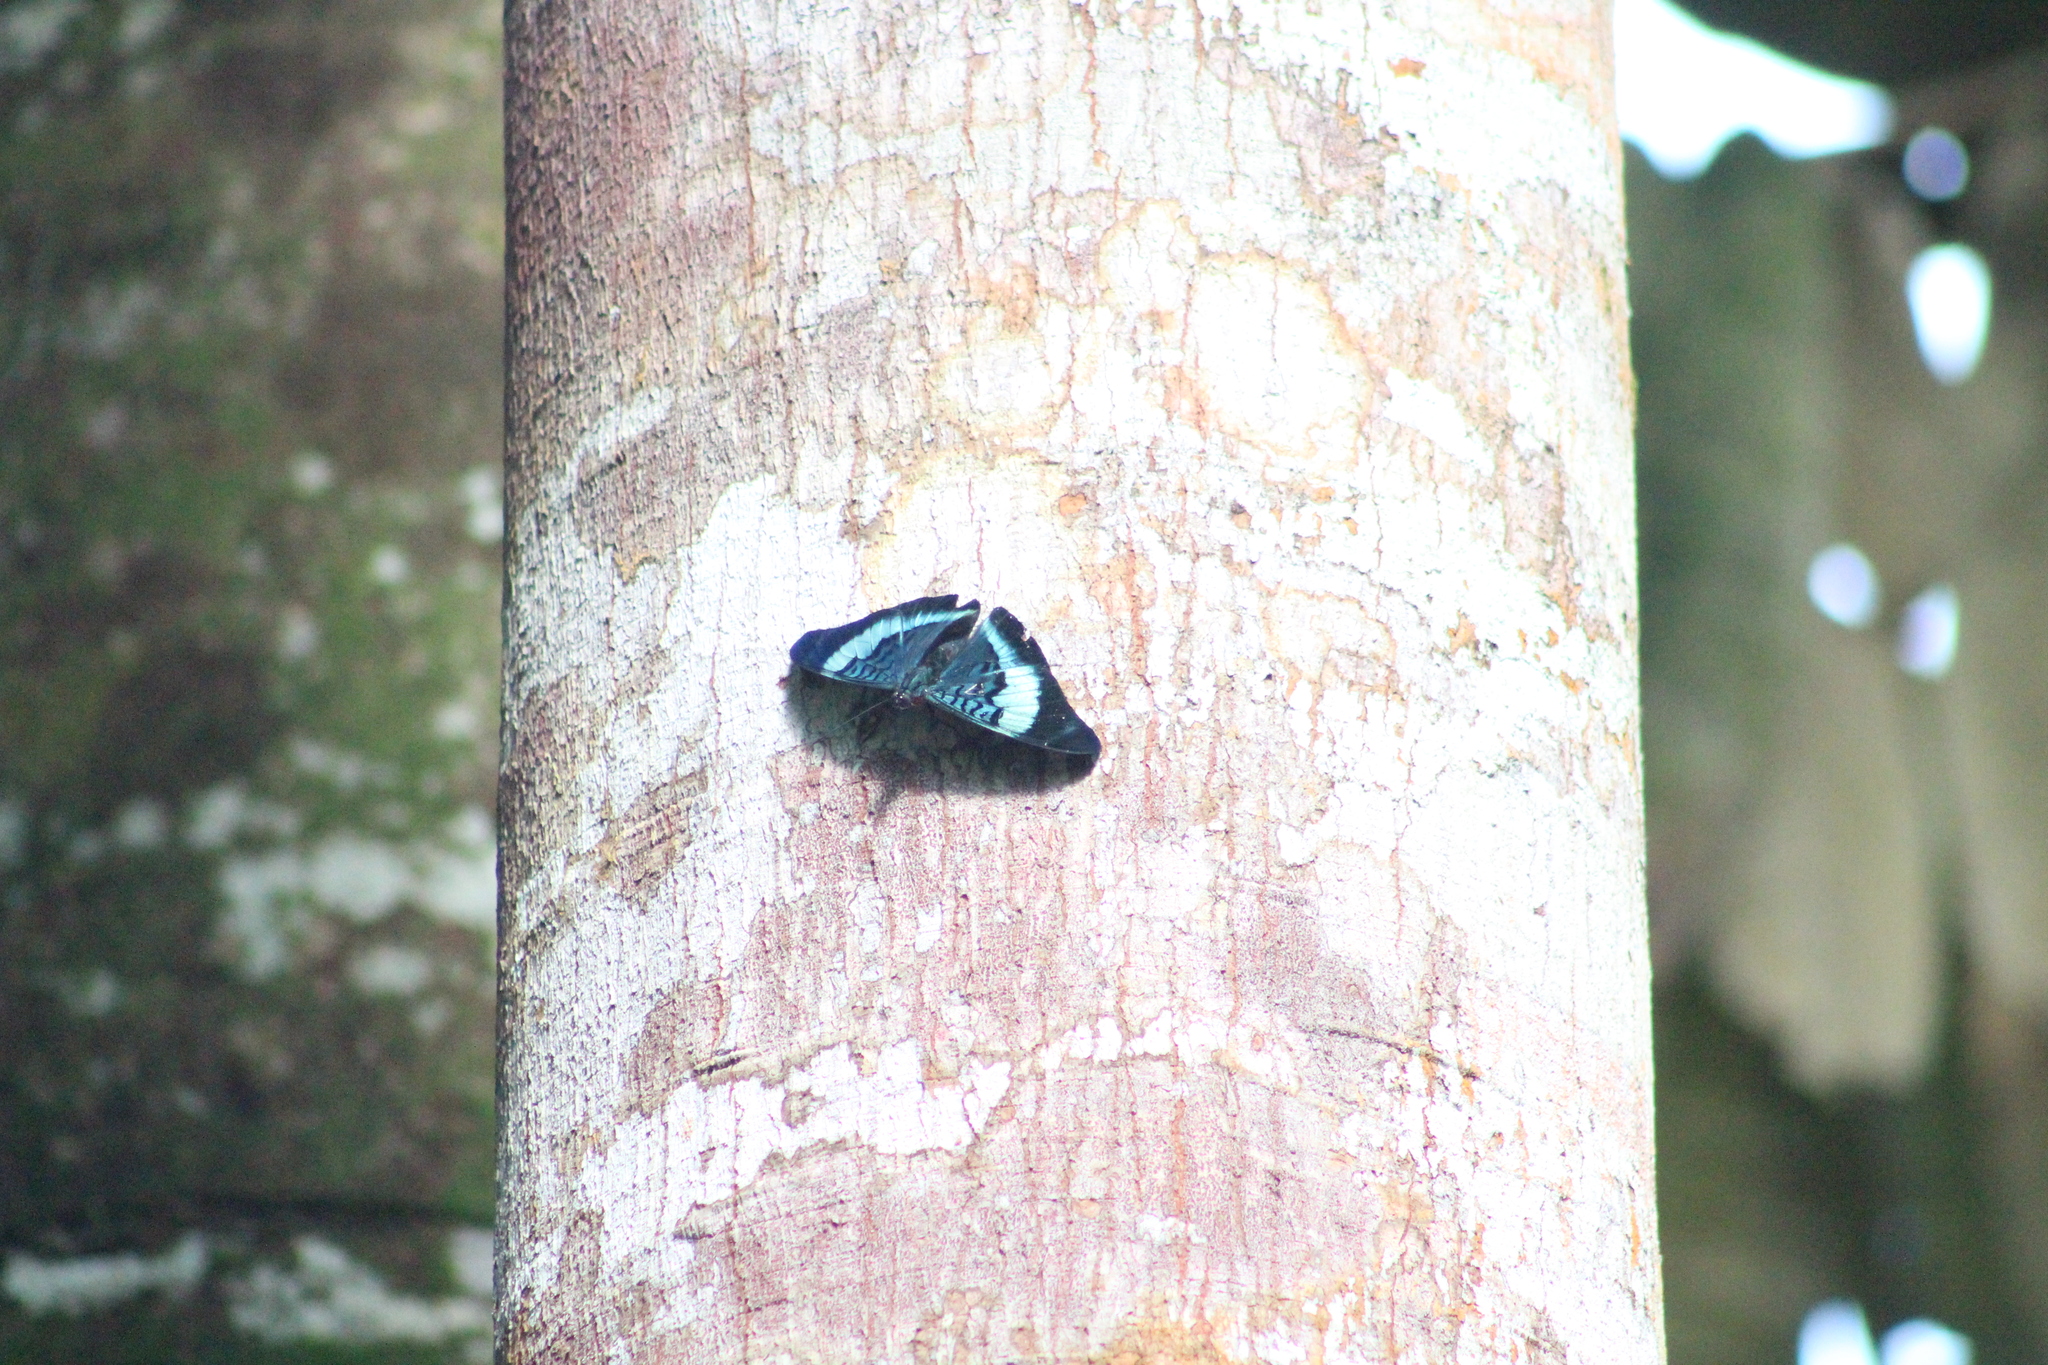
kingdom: Animalia
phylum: Arthropoda
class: Insecta
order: Lepidoptera
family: Nymphalidae
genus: Panacea
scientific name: Panacea prola
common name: Red flasher
